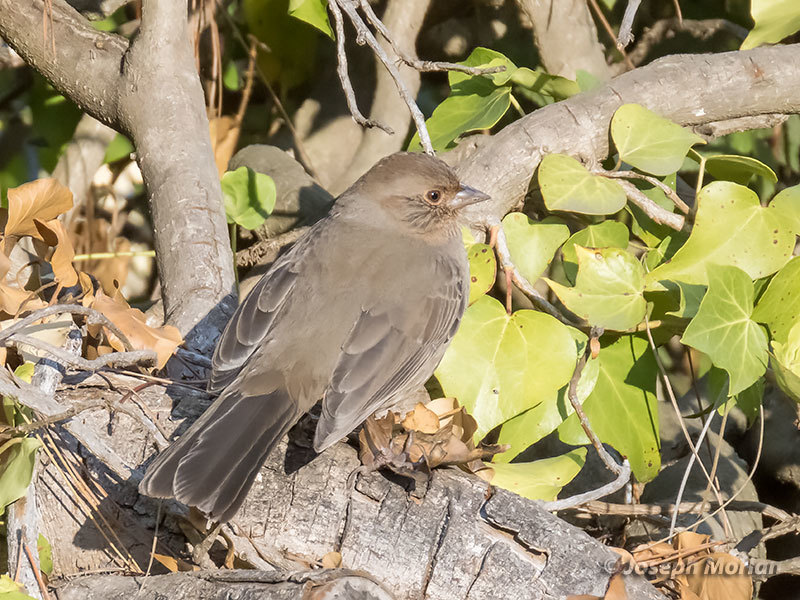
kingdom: Animalia
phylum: Chordata
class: Aves
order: Passeriformes
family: Passerellidae
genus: Melozone
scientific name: Melozone crissalis
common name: California towhee
